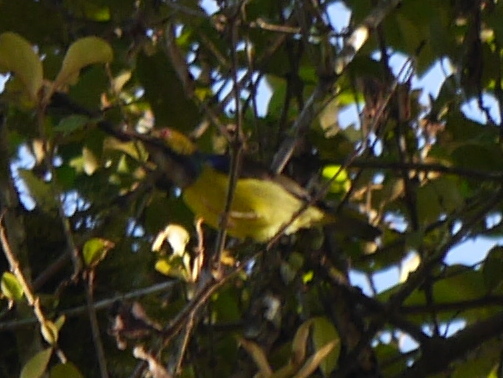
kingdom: Animalia
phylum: Chordata
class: Aves
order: Passeriformes
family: Nectariniidae
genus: Anthreptes
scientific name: Anthreptes malacensis
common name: Brown-throated sunbird
